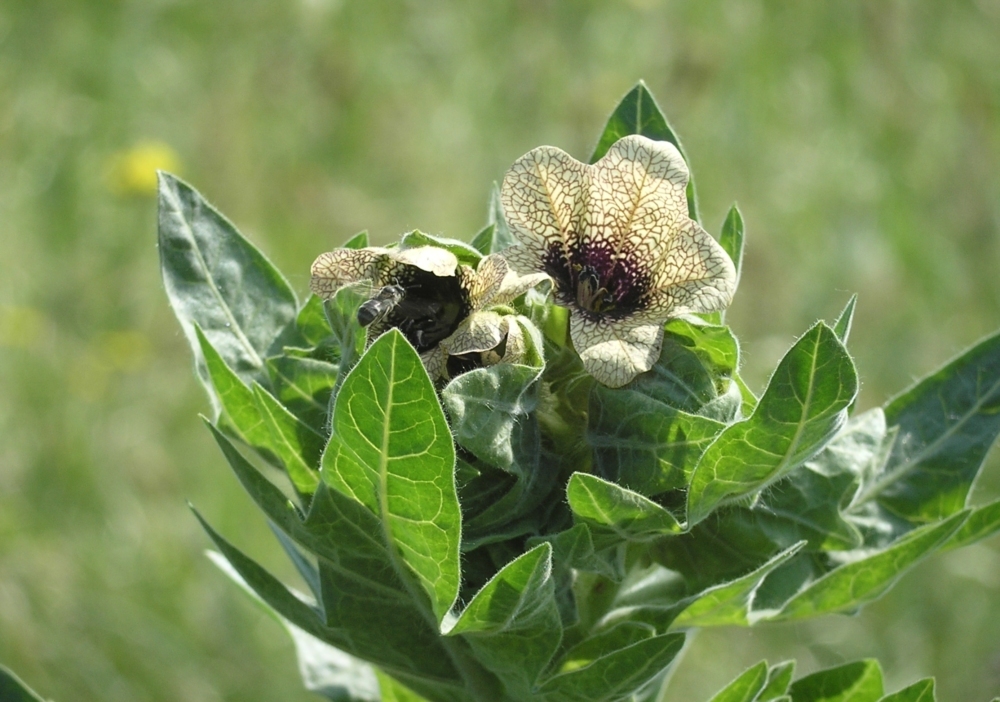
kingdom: Plantae
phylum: Tracheophyta
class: Magnoliopsida
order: Solanales
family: Solanaceae
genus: Hyoscyamus
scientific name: Hyoscyamus niger
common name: Henbane
